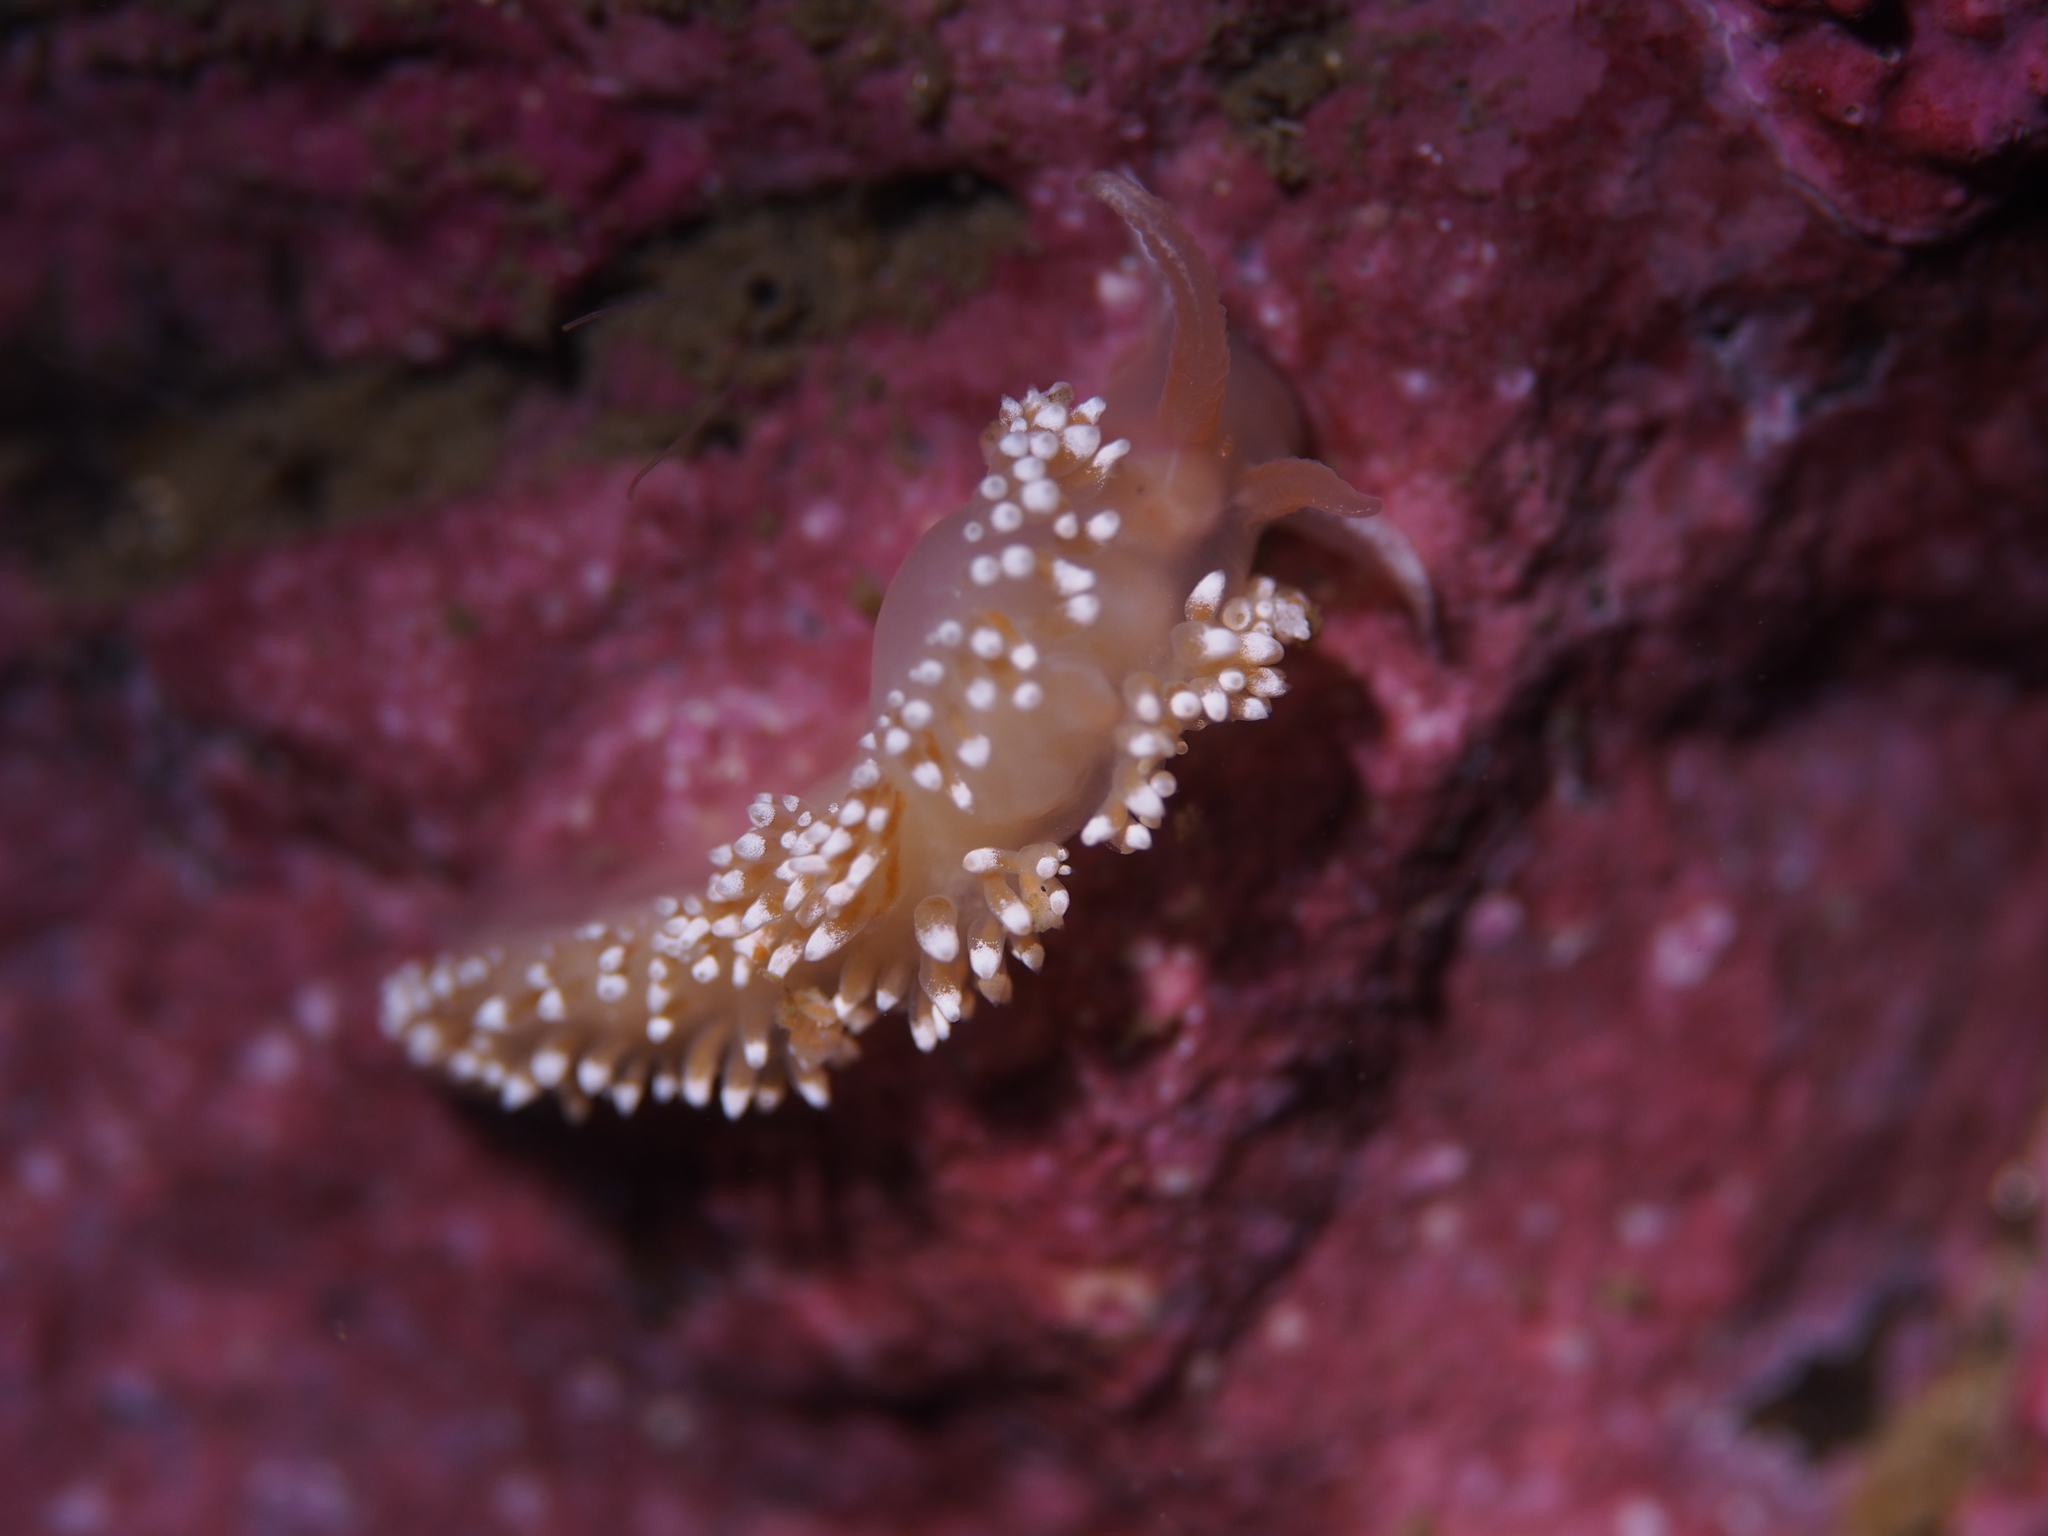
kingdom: Animalia
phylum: Mollusca
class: Gastropoda
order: Nudibranchia
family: Coryphellidae
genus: Coryphella
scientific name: Coryphella verrucosa
